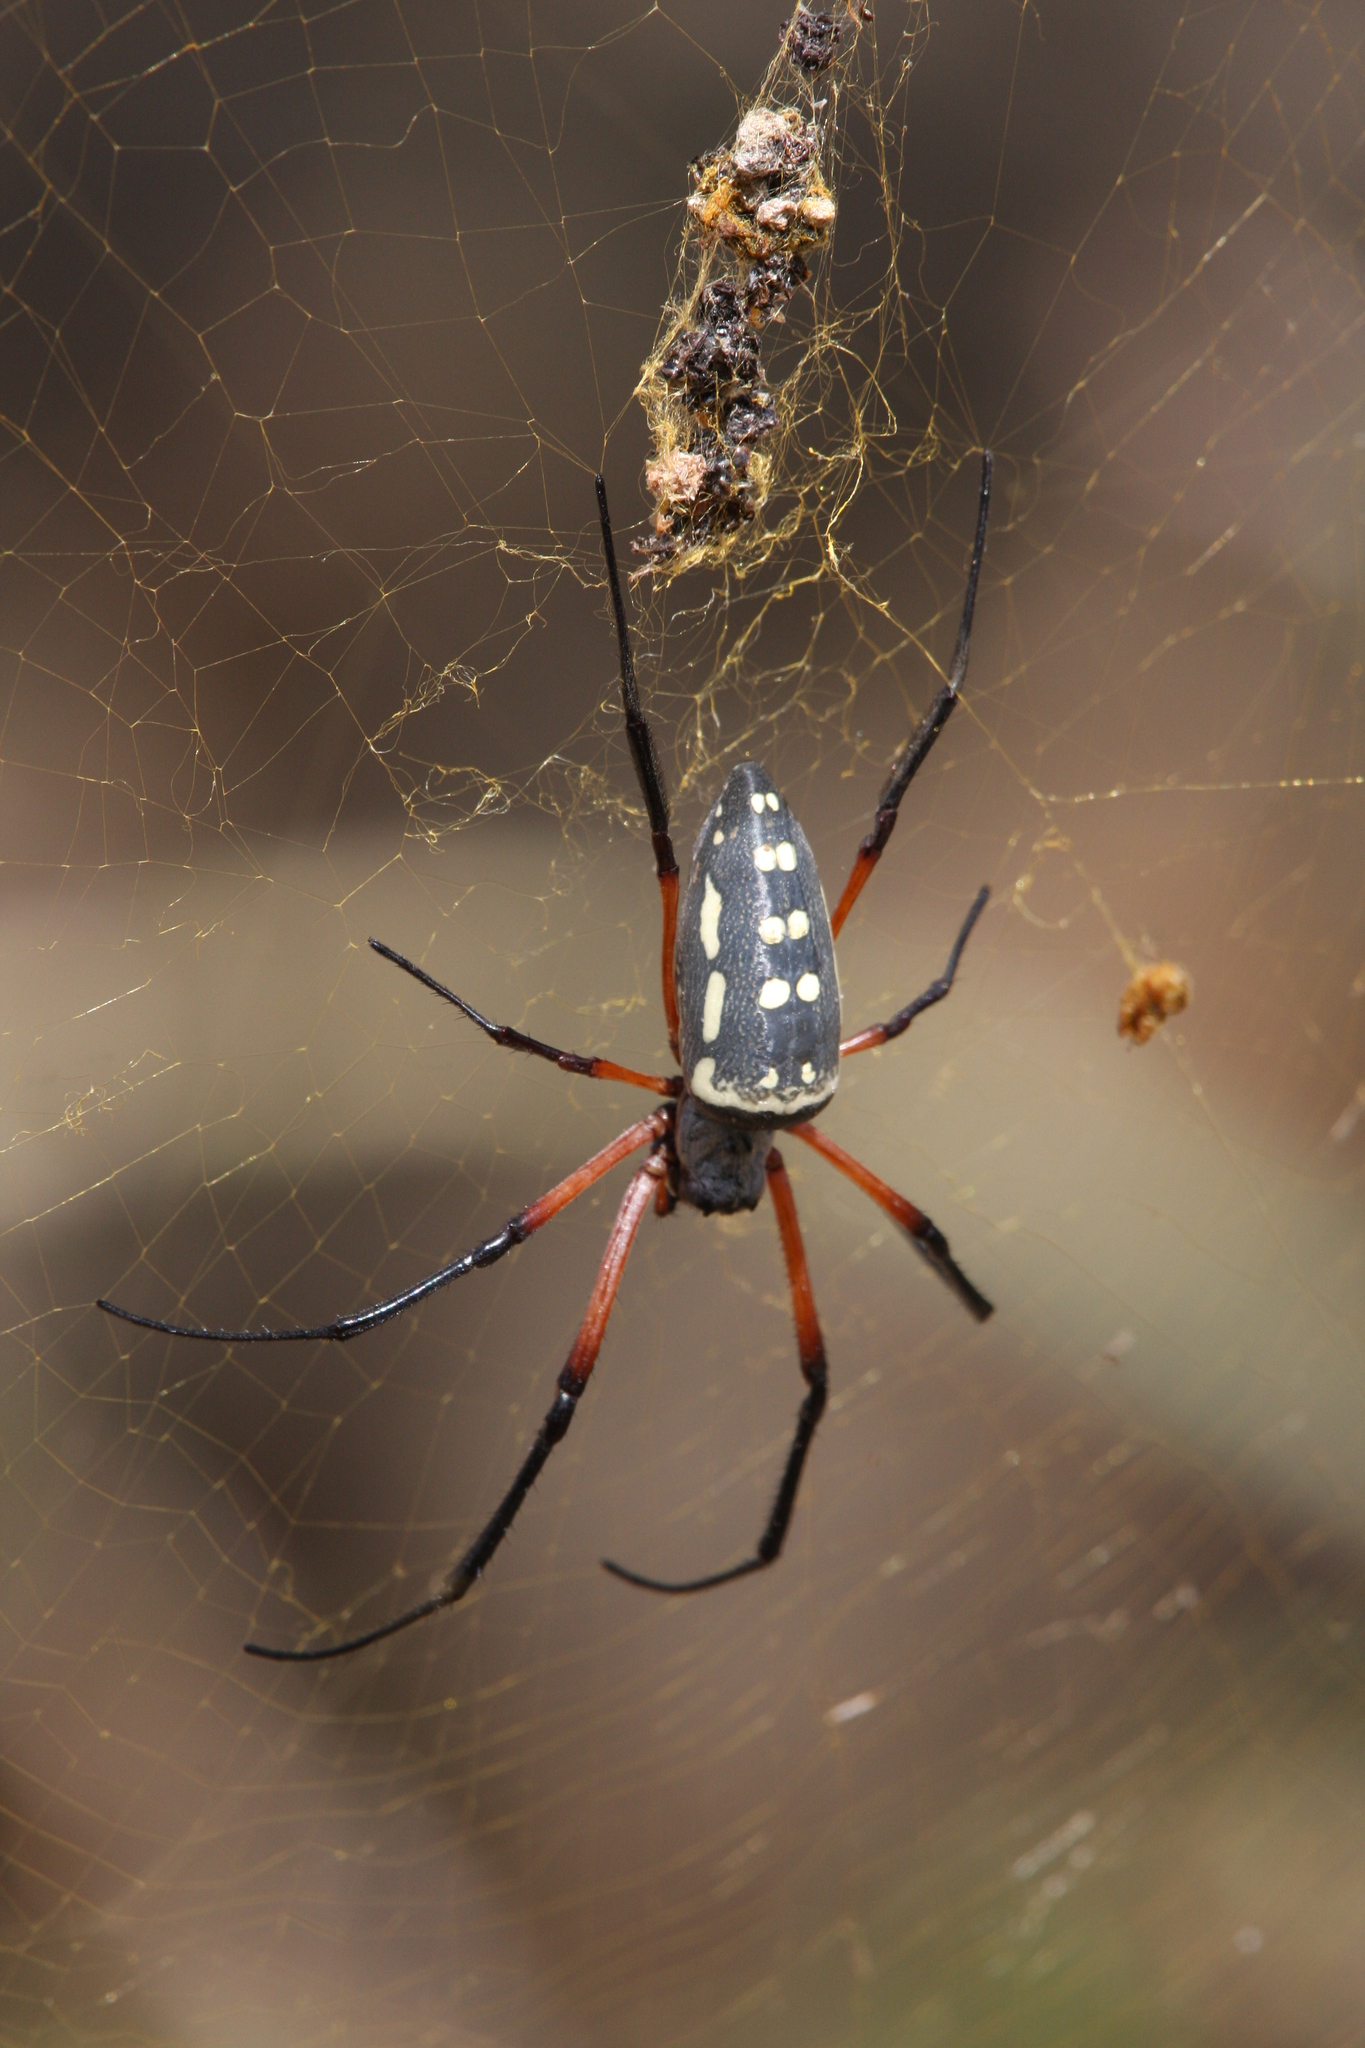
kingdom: Animalia
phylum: Arthropoda
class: Arachnida
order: Araneae
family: Araneidae
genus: Trichonephila
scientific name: Trichonephila sumptuosa
